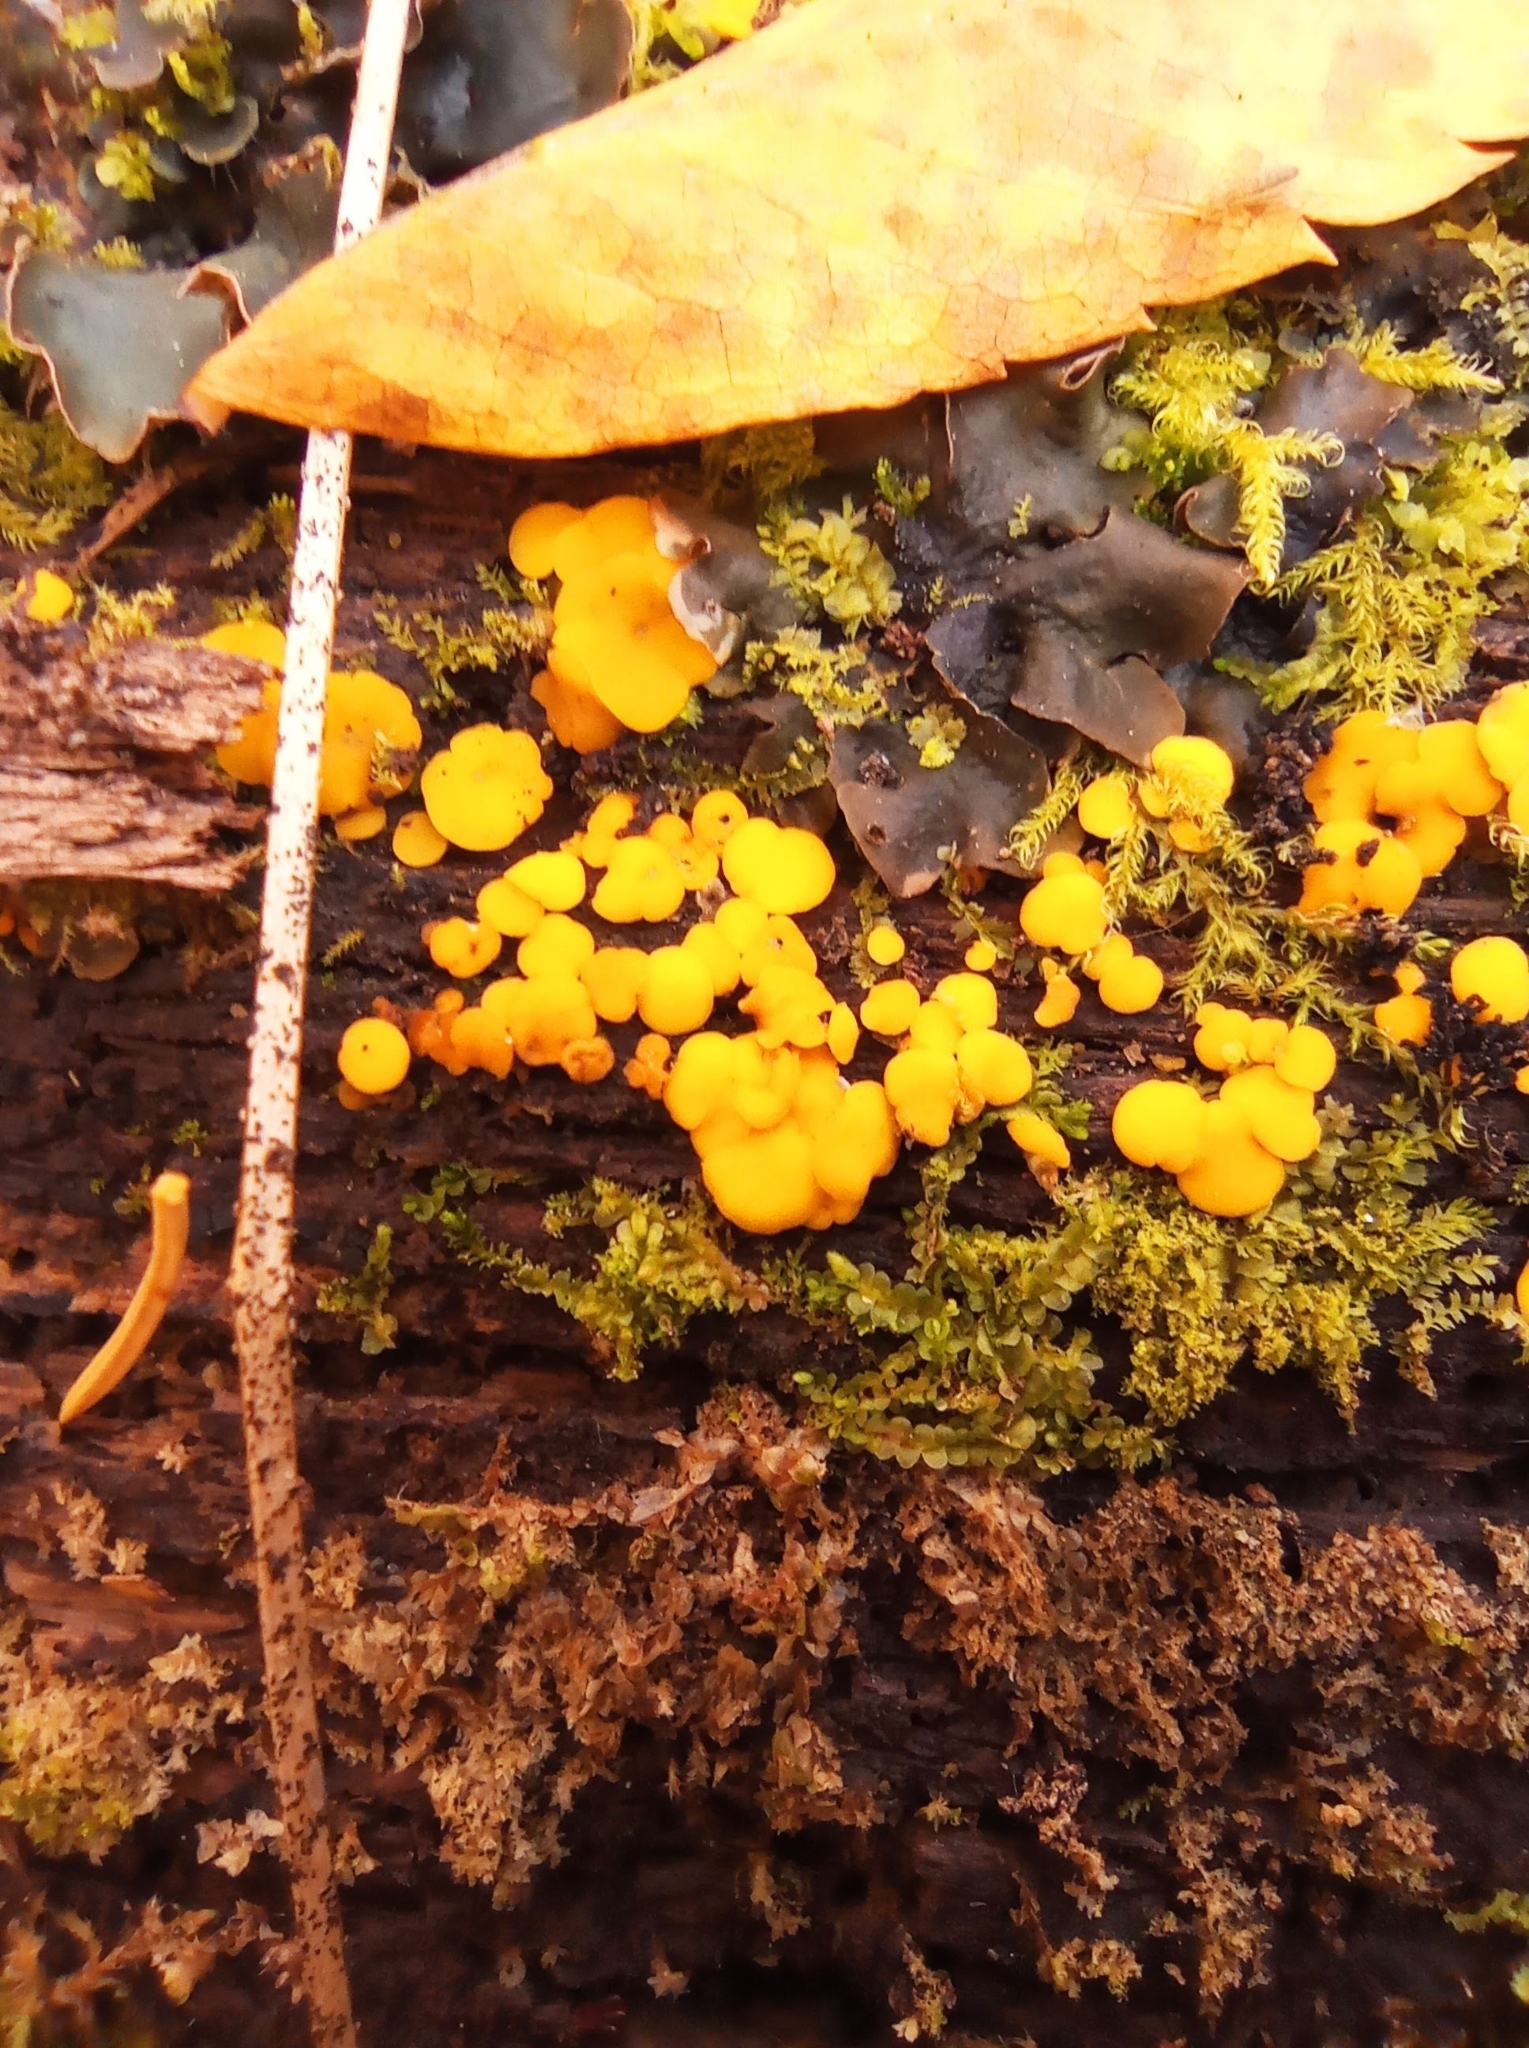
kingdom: Fungi
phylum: Ascomycota
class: Leotiomycetes
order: Helotiales
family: Pezizellaceae
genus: Calycina
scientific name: Calycina citrina
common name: Yellow fairy cups
